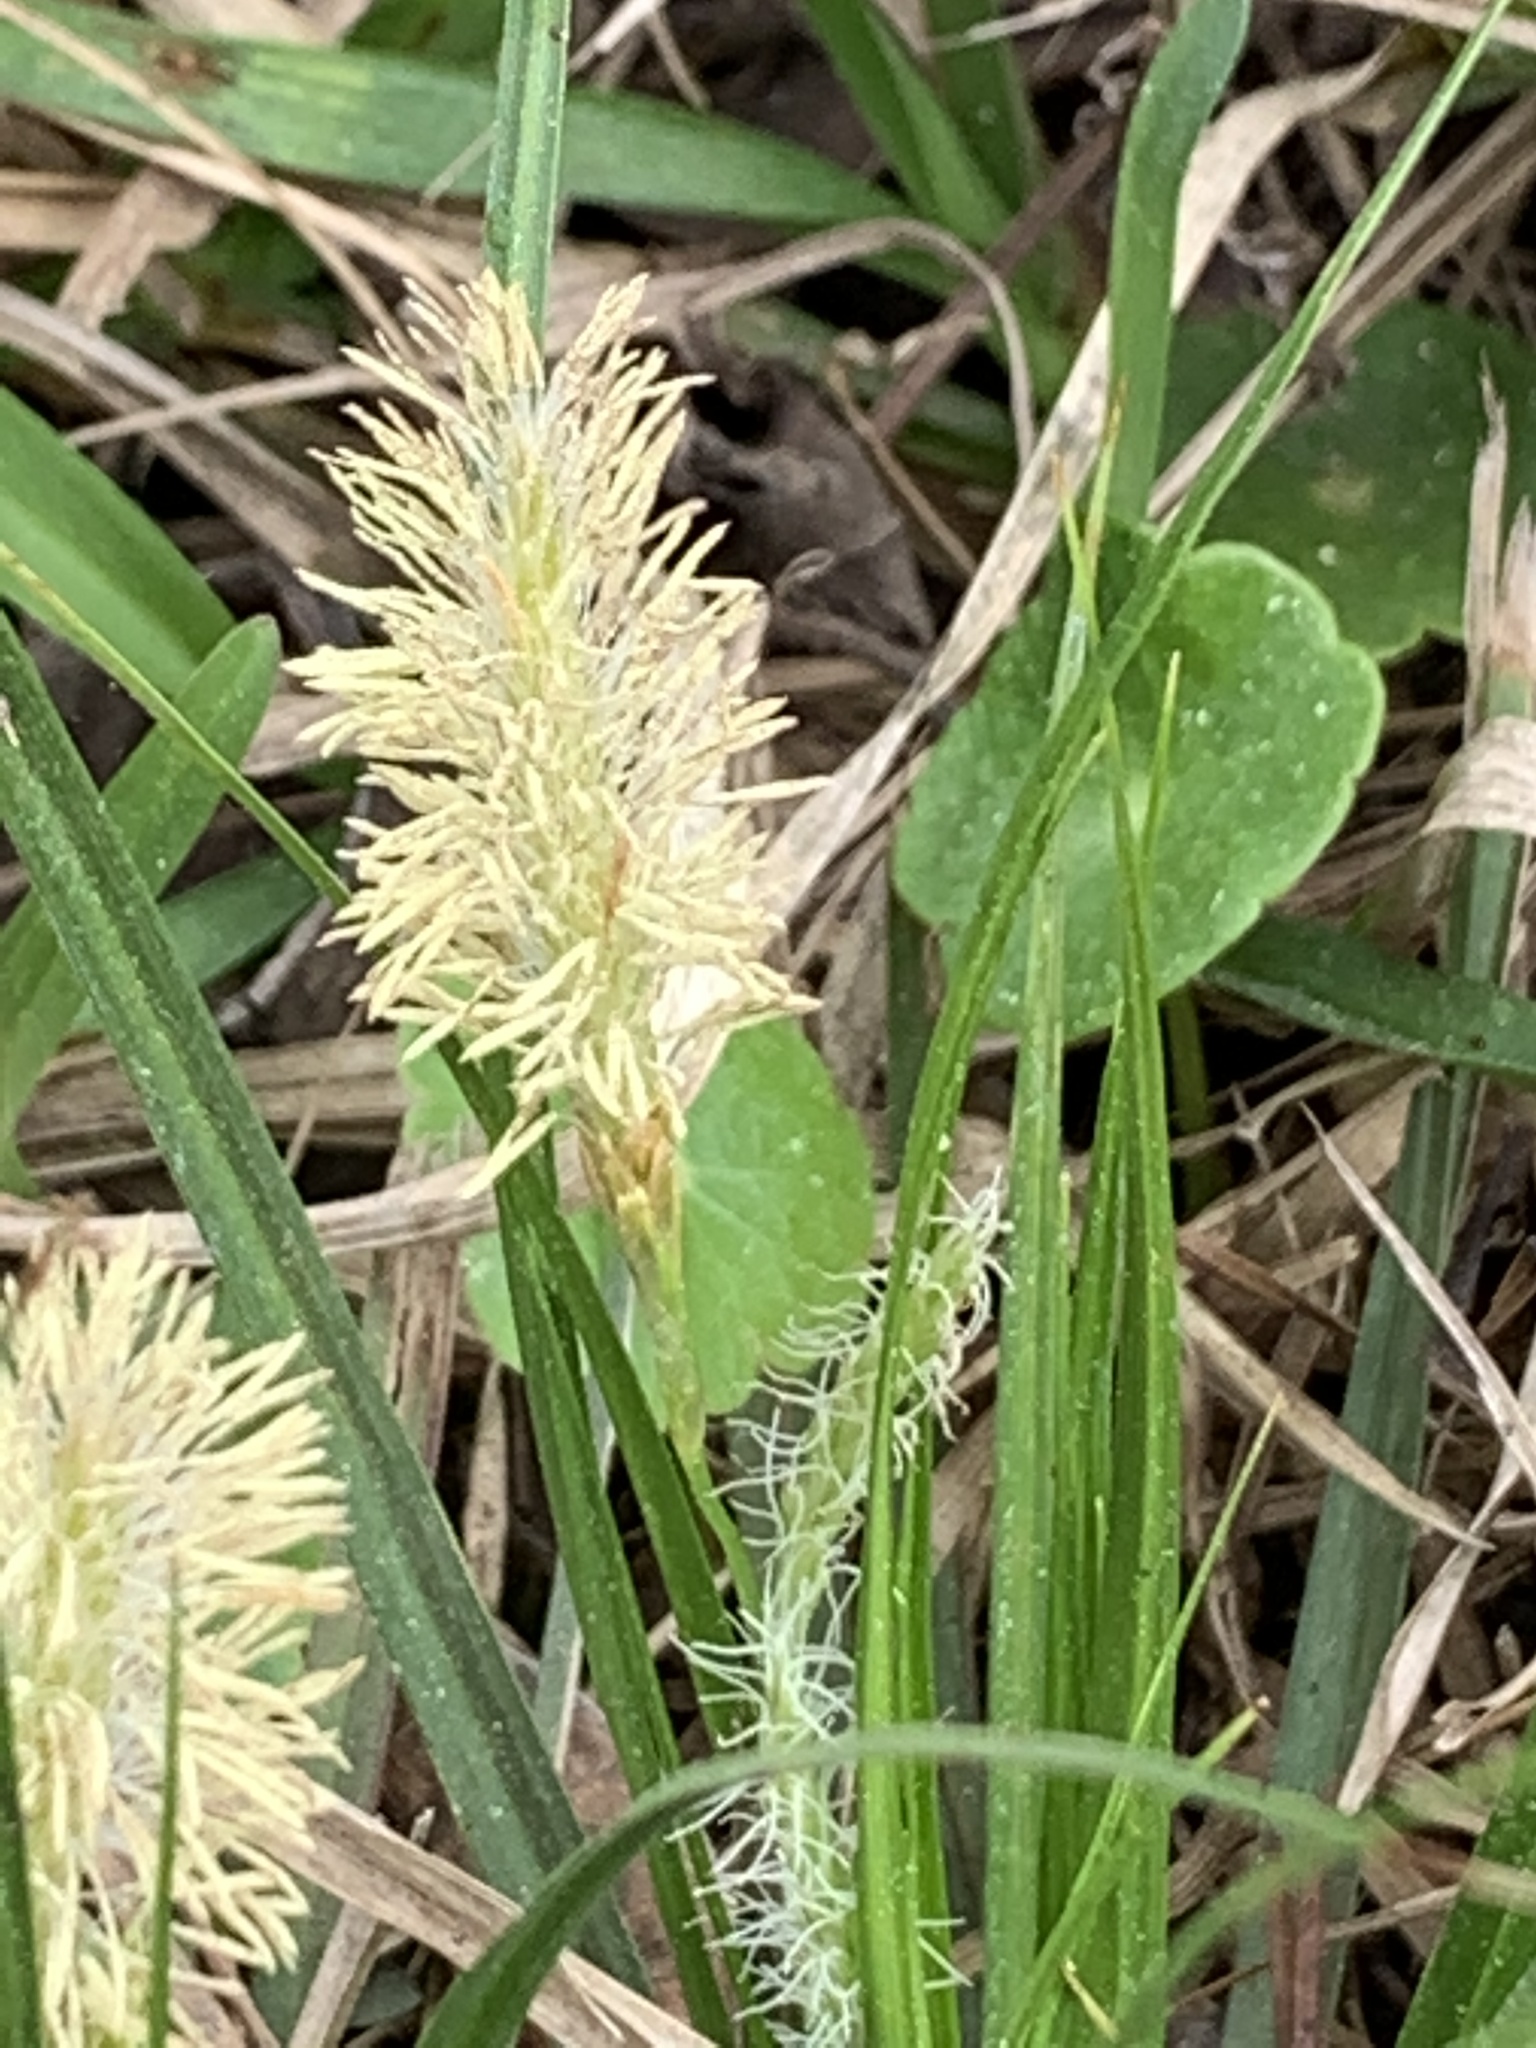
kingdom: Plantae
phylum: Tracheophyta
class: Liliopsida
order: Poales
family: Cyperaceae
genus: Carex
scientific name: Carex cherokeensis
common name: Cherokee sedge
